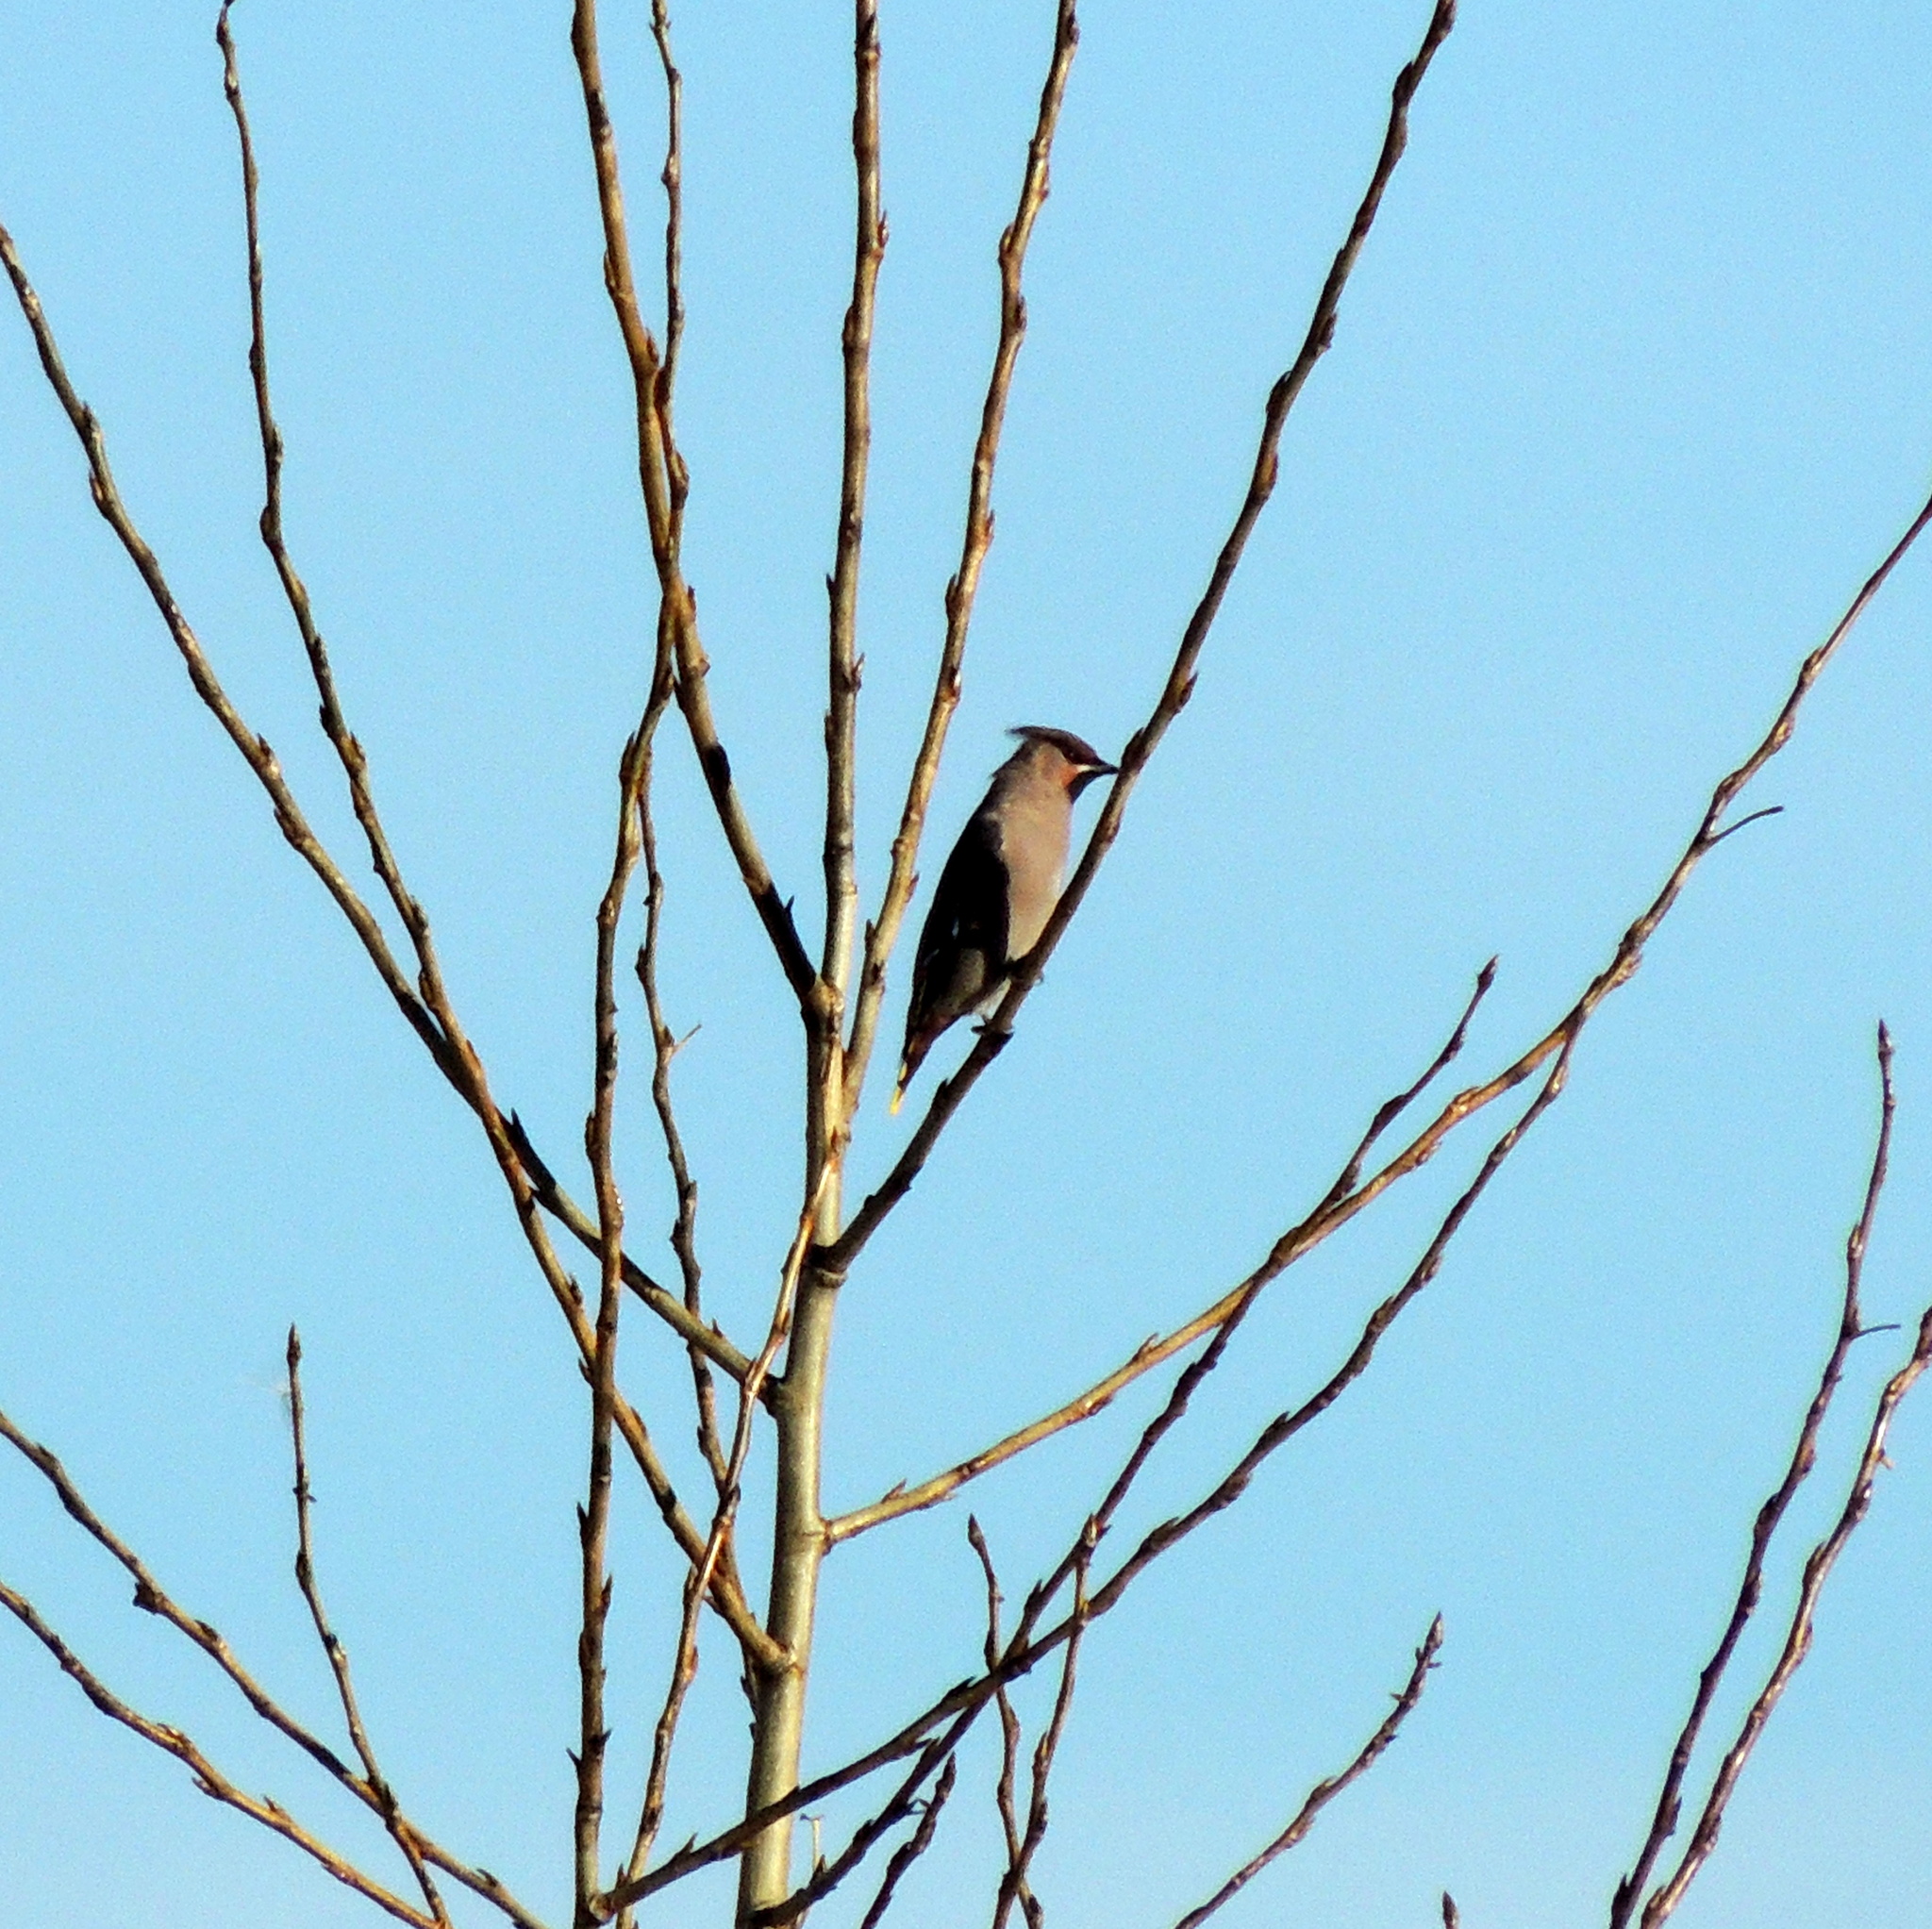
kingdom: Animalia
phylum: Chordata
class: Aves
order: Passeriformes
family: Bombycillidae
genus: Bombycilla
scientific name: Bombycilla garrulus
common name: Bohemian waxwing
